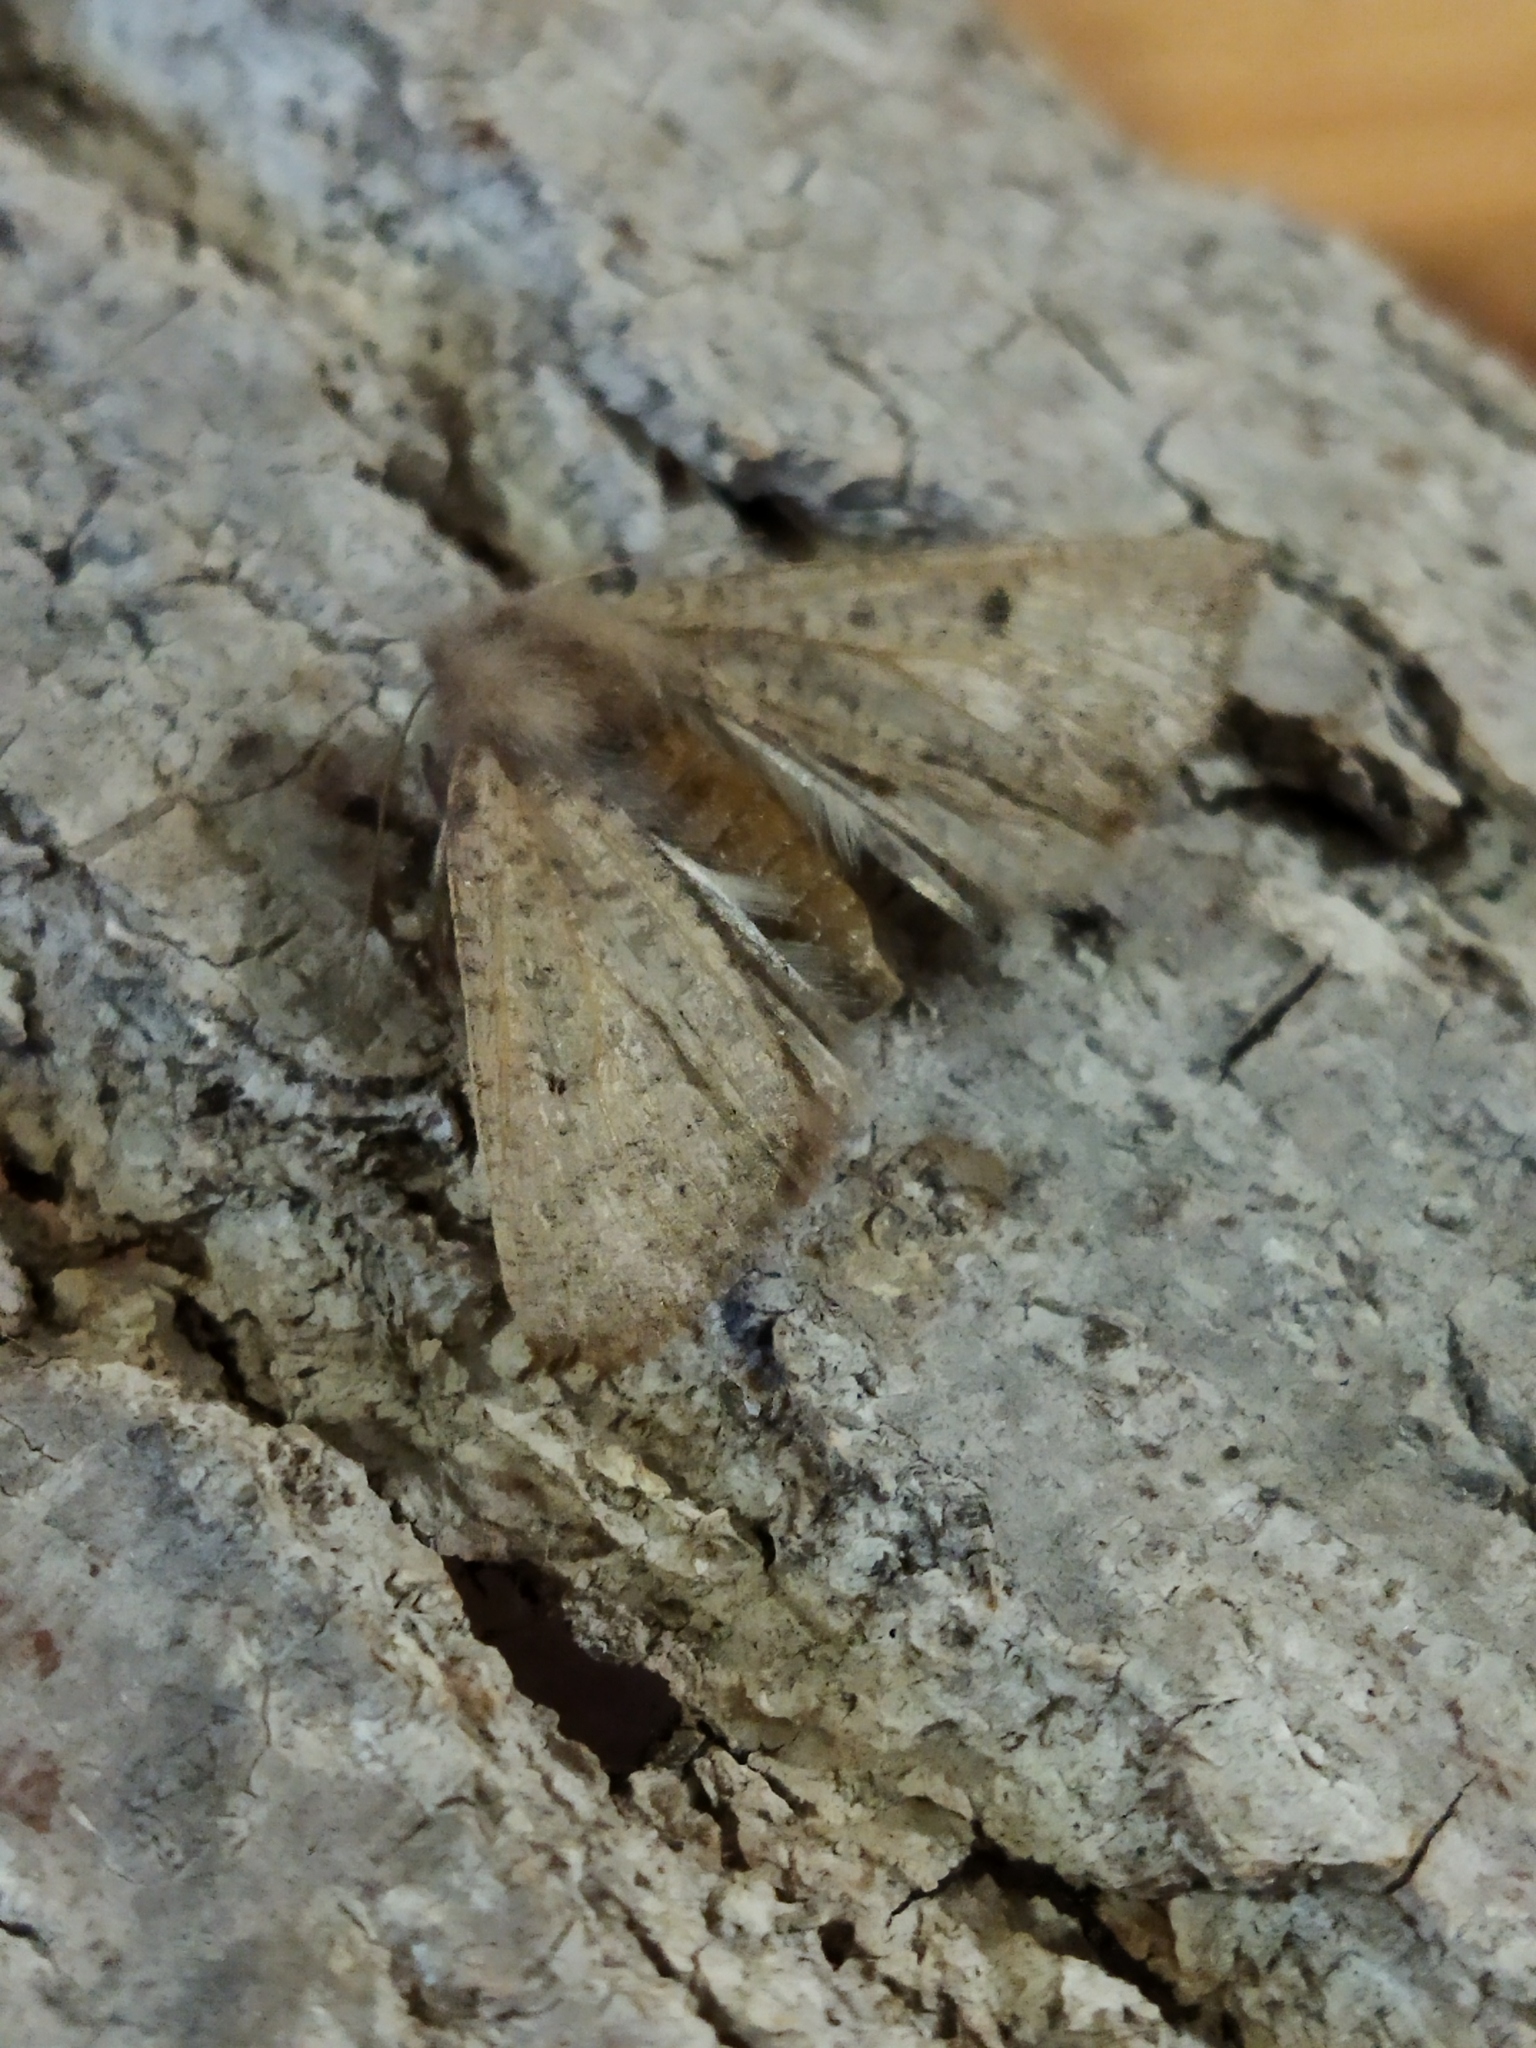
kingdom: Animalia
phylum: Arthropoda
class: Insecta
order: Lepidoptera
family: Geometridae
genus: Dasycorsa
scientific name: Dasycorsa modesta
